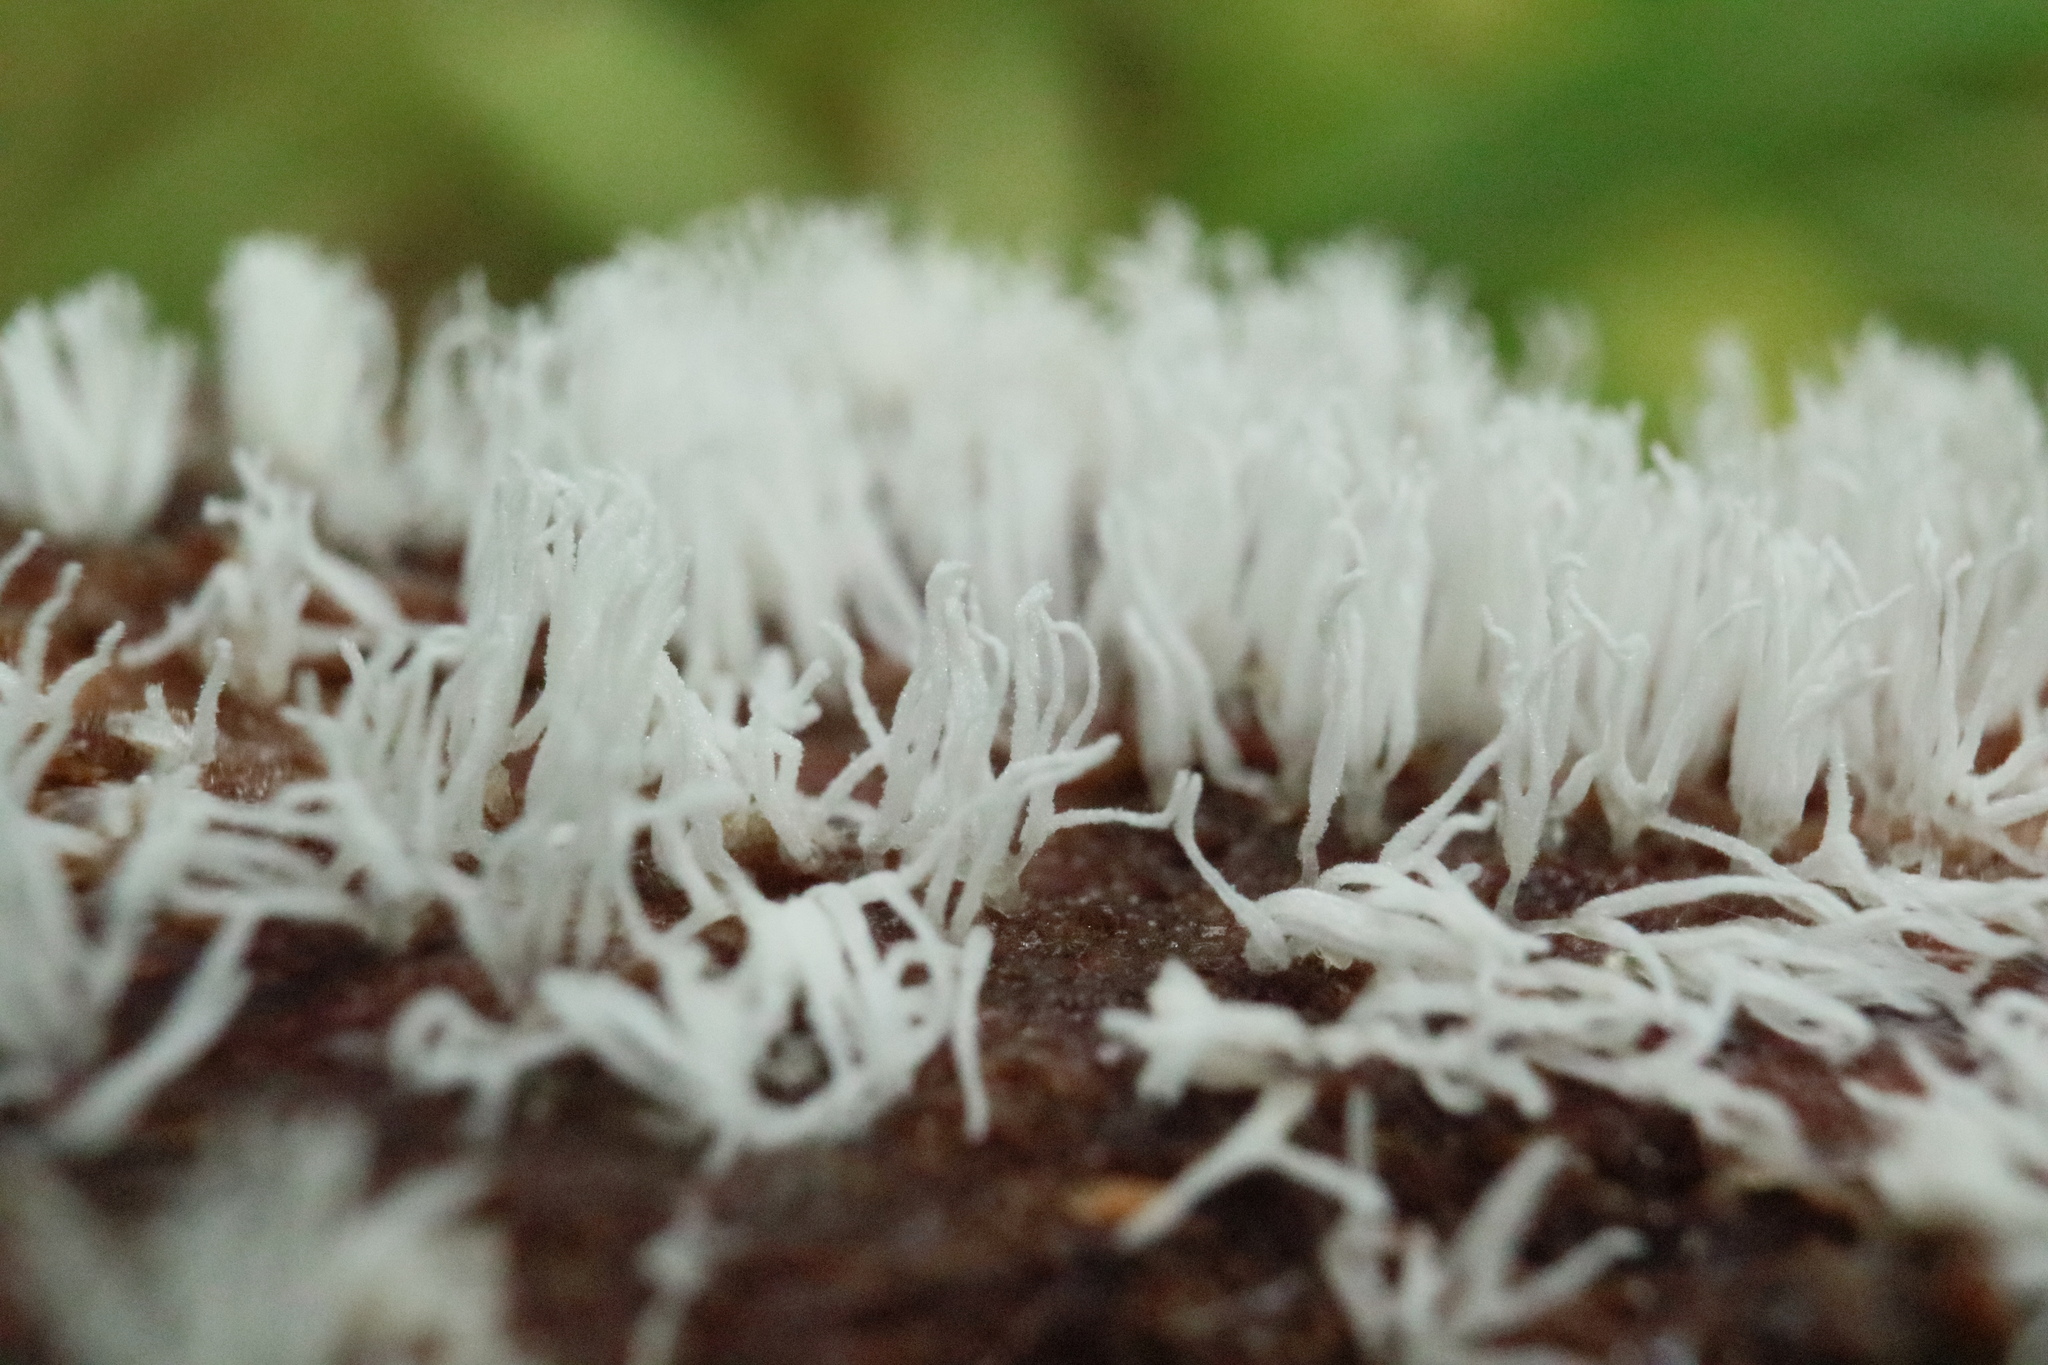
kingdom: Protozoa
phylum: Mycetozoa
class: Protosteliomycetes
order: Ceratiomyxales
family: Ceratiomyxaceae
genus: Ceratiomyxa
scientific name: Ceratiomyxa fruticulosa
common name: Honeycomb coral slime mold
